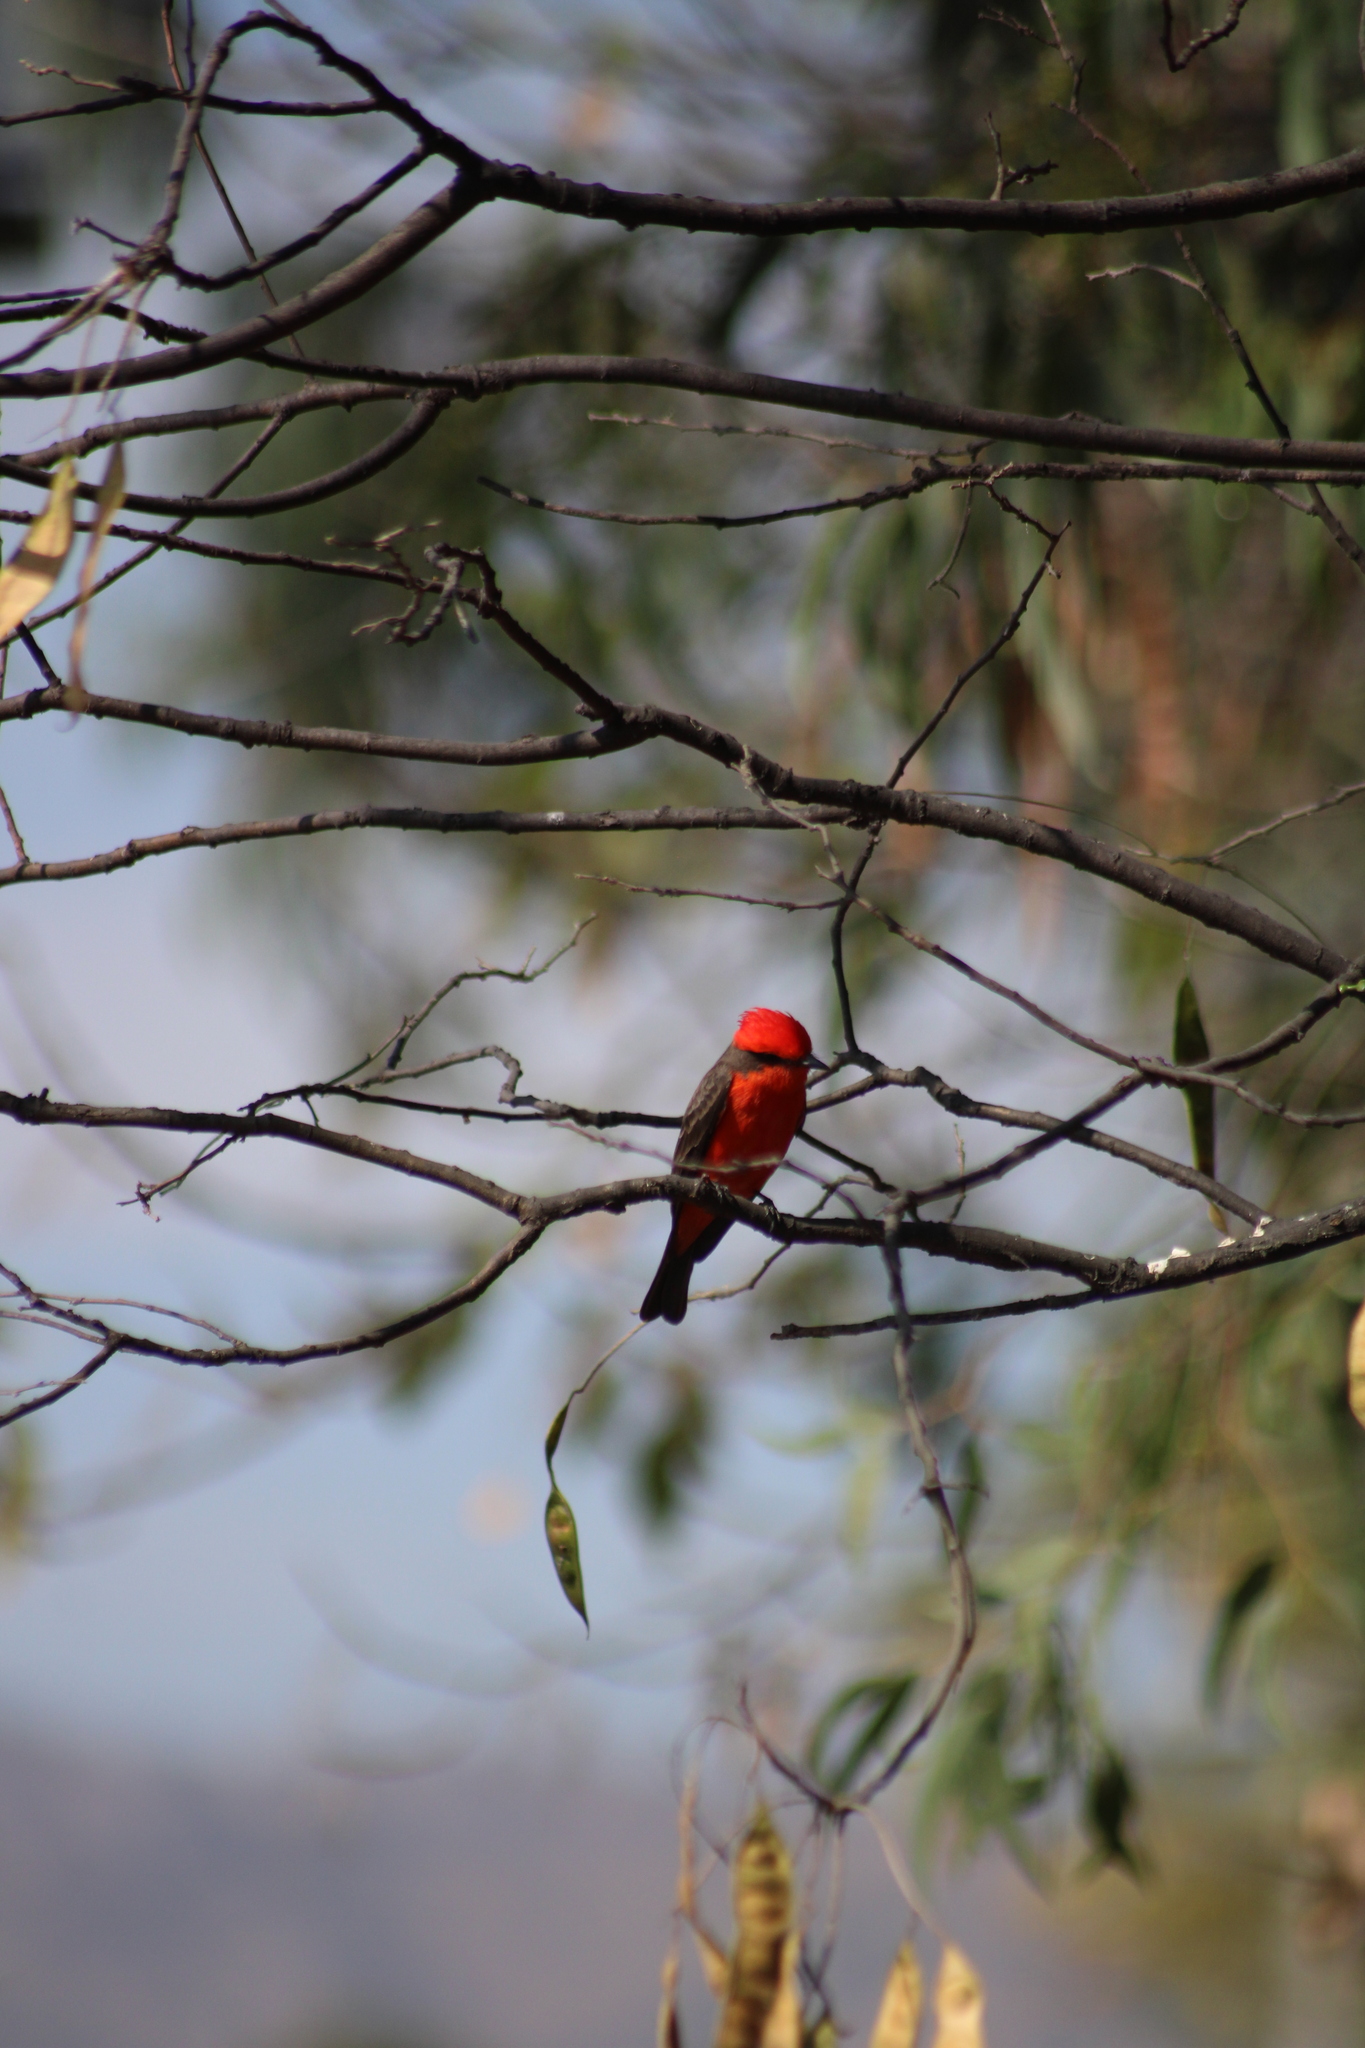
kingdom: Animalia
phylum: Chordata
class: Aves
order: Passeriformes
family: Tyrannidae
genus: Pyrocephalus
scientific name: Pyrocephalus rubinus
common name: Vermilion flycatcher
